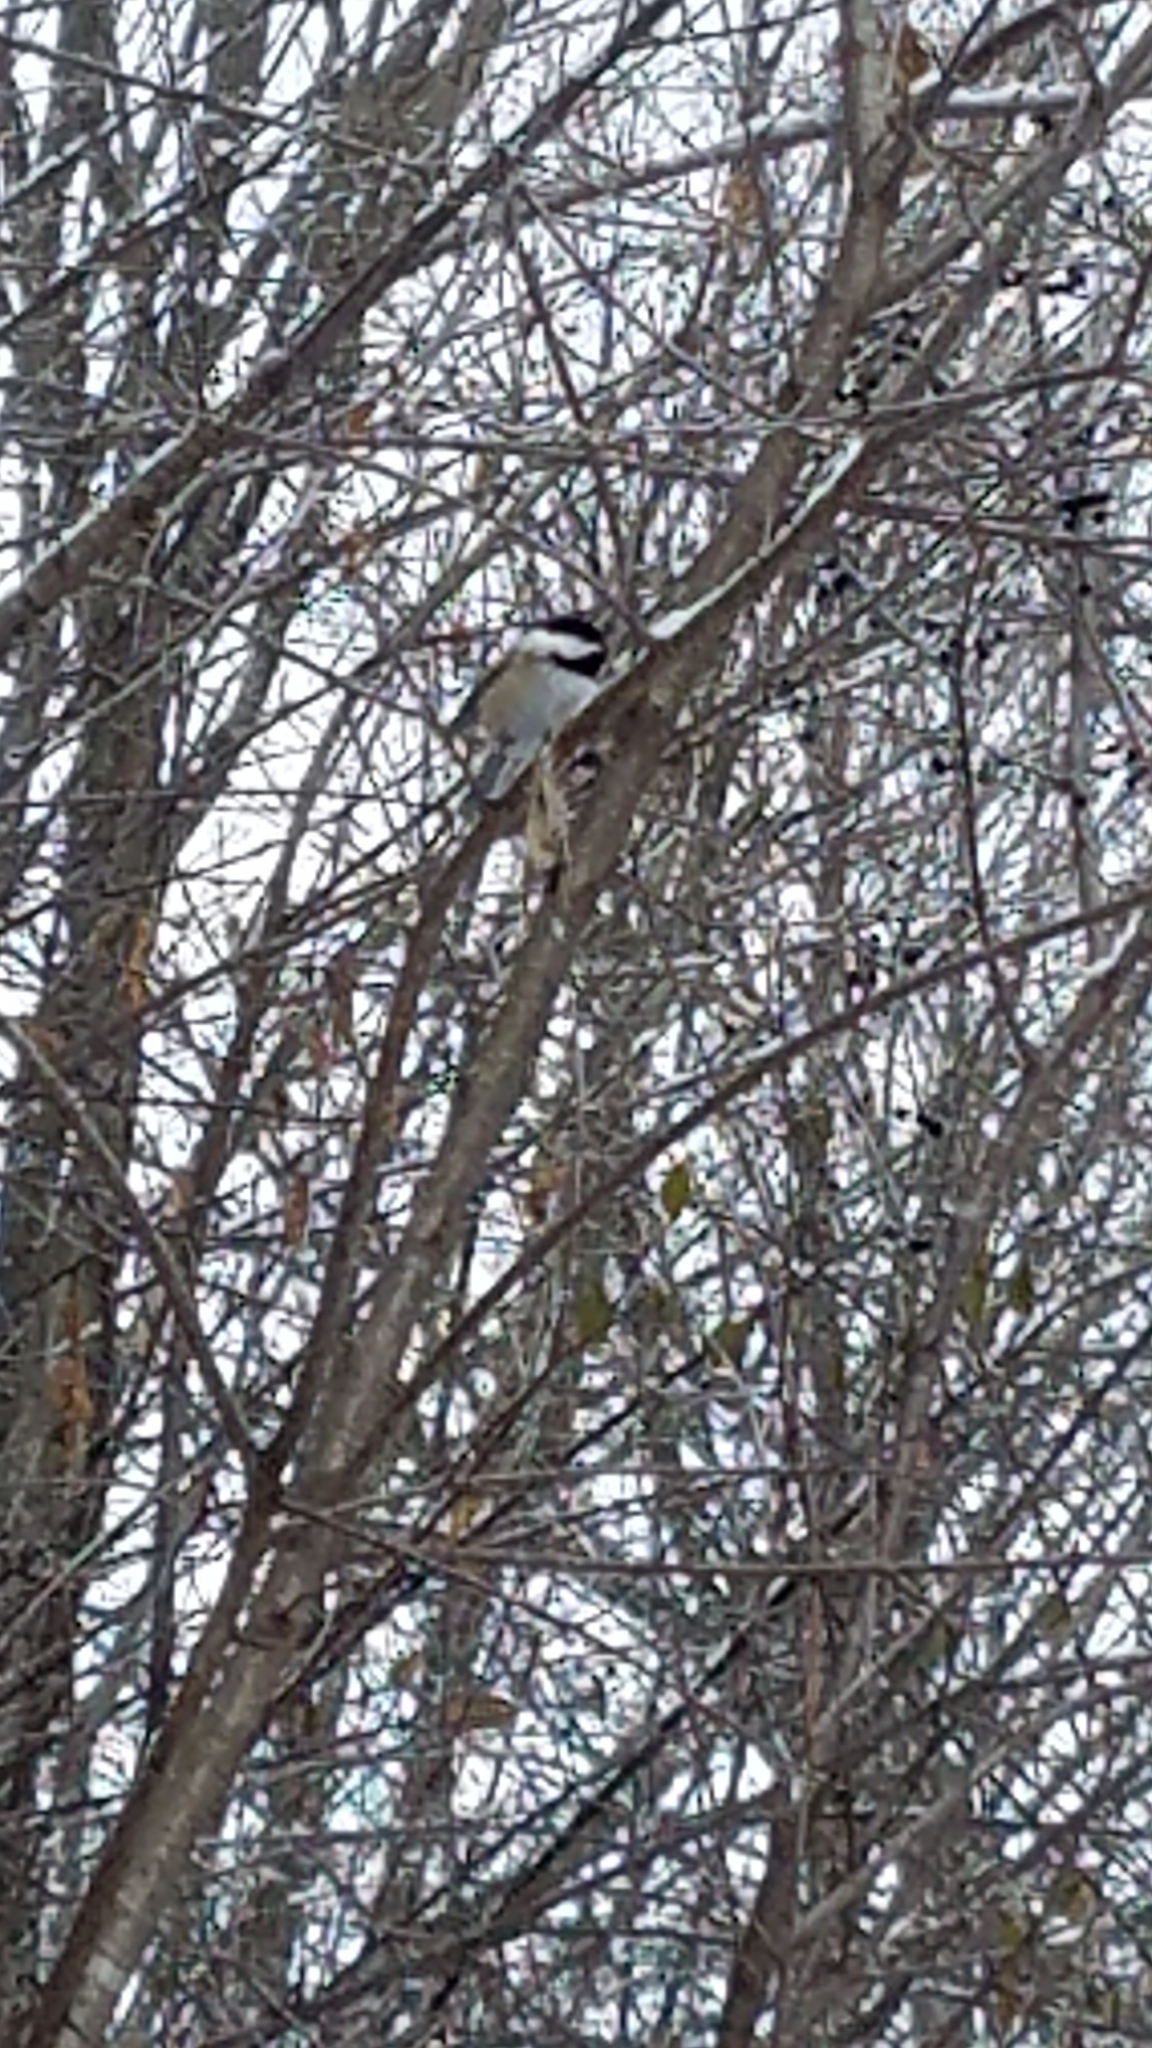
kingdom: Animalia
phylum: Chordata
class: Aves
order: Passeriformes
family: Paridae
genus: Poecile
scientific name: Poecile atricapillus
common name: Black-capped chickadee
